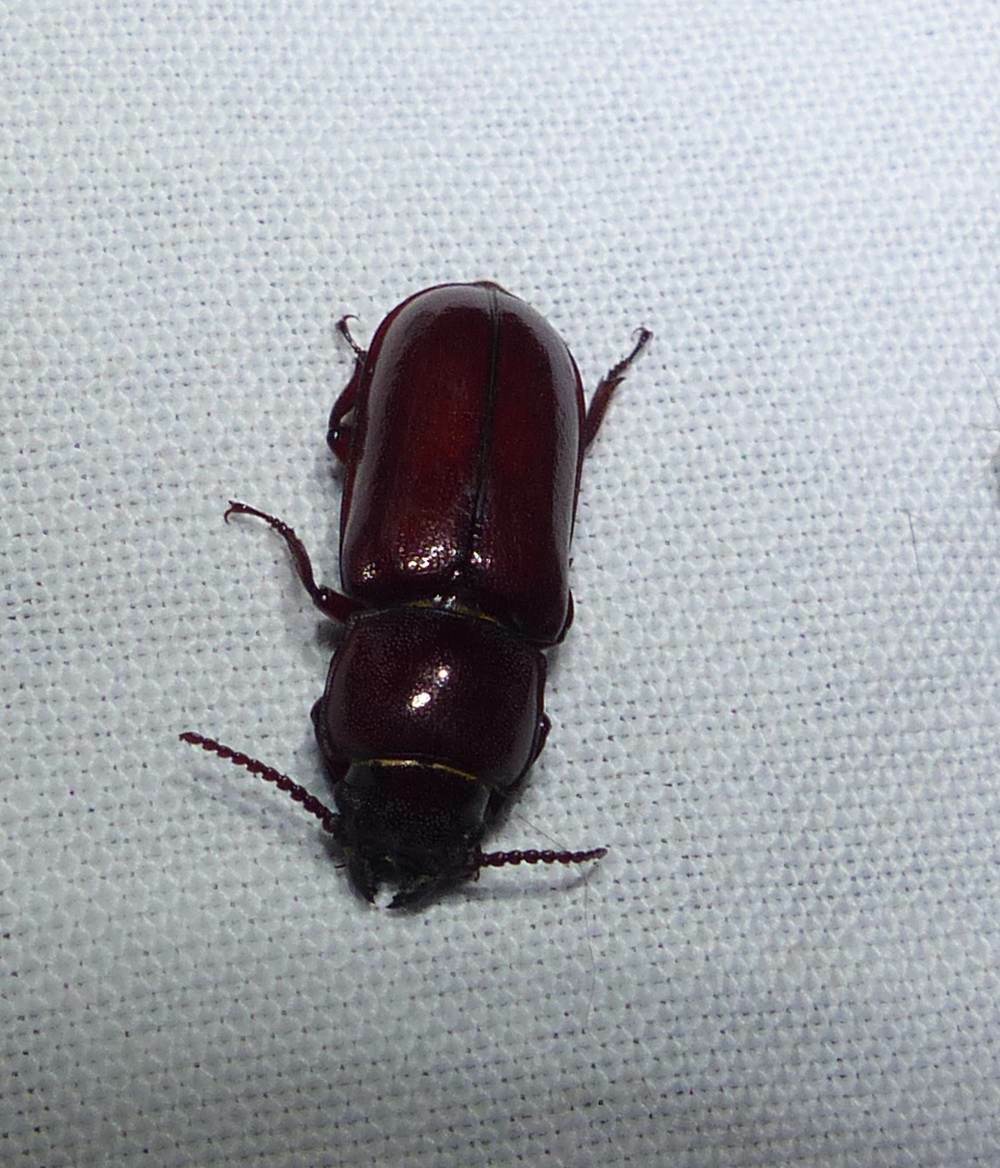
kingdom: Animalia
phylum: Arthropoda
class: Insecta
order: Coleoptera
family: Cerambycidae
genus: Neandra
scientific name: Neandra brunnea
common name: Pole borer
